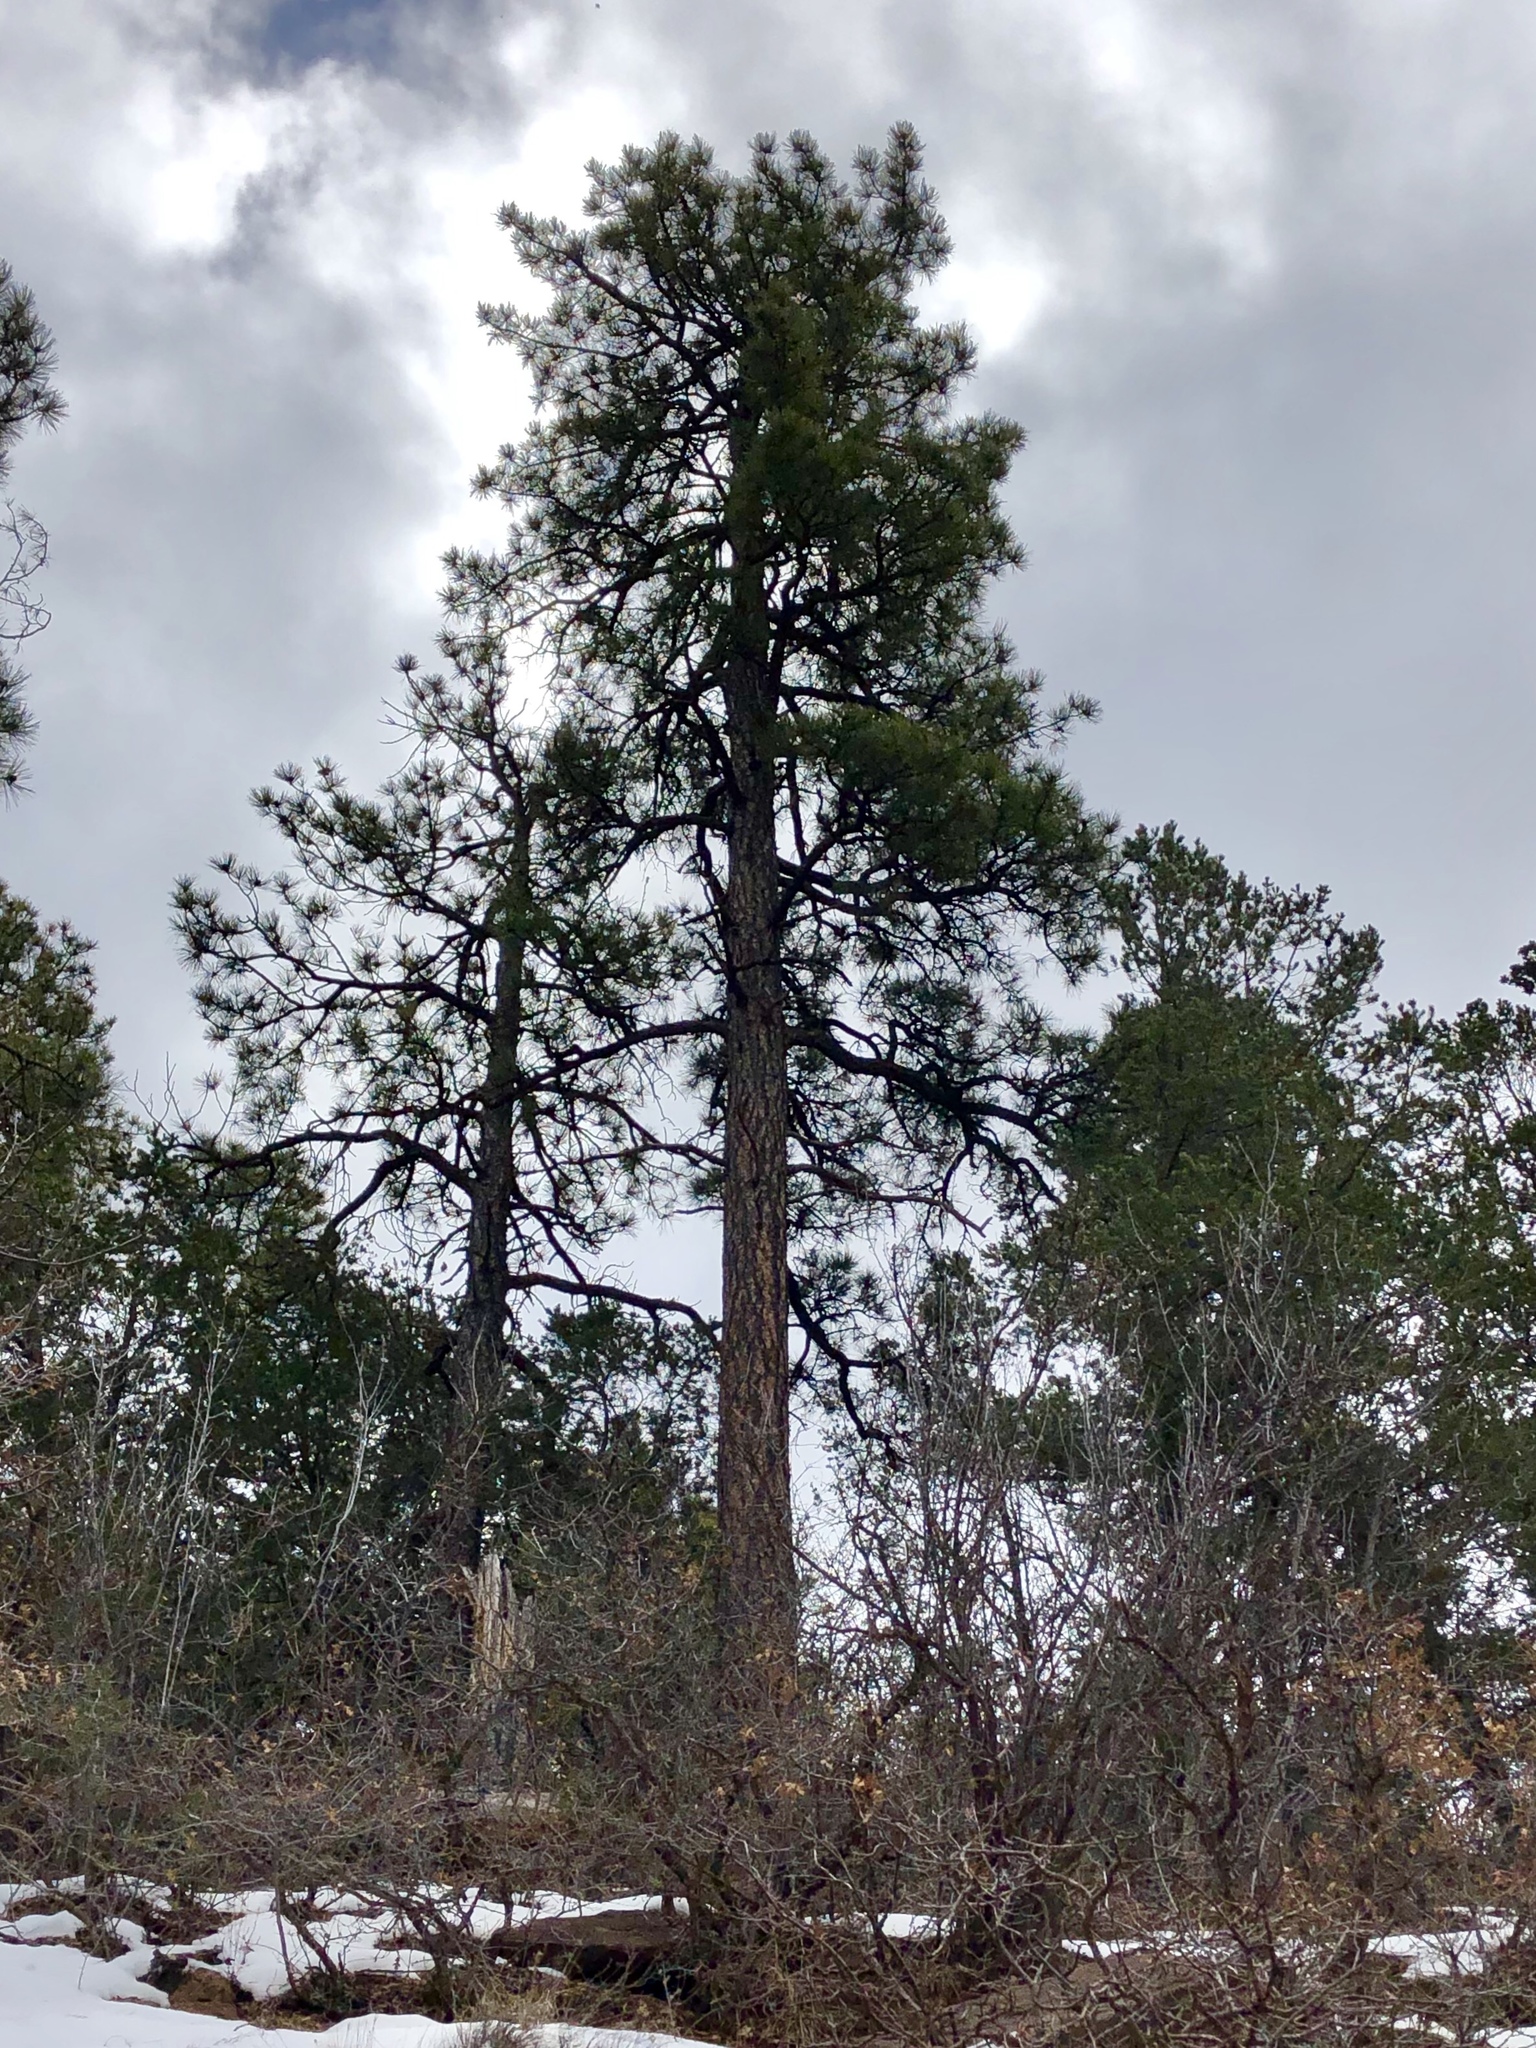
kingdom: Plantae
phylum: Tracheophyta
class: Pinopsida
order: Pinales
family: Pinaceae
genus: Pinus
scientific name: Pinus ponderosa
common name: Western yellow-pine
